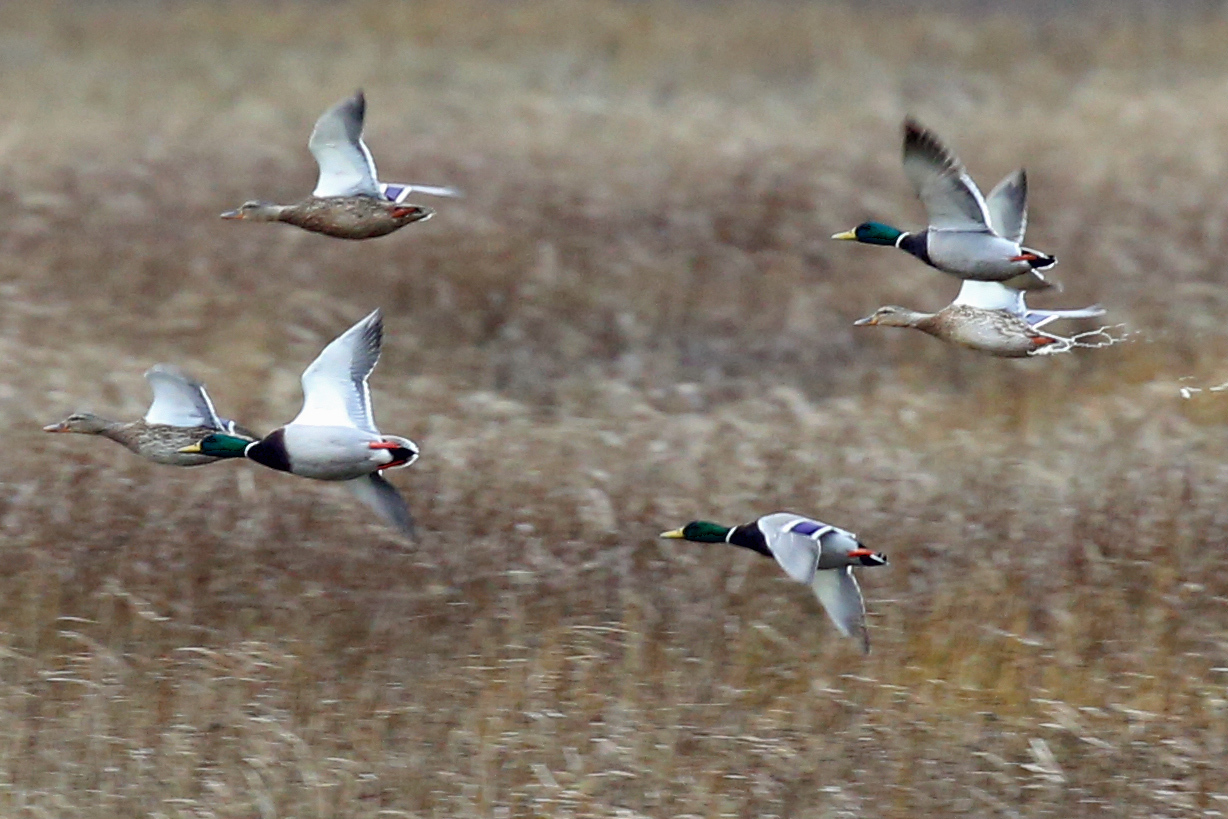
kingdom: Animalia
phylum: Chordata
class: Aves
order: Anseriformes
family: Anatidae
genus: Anas
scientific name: Anas platyrhynchos
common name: Mallard
